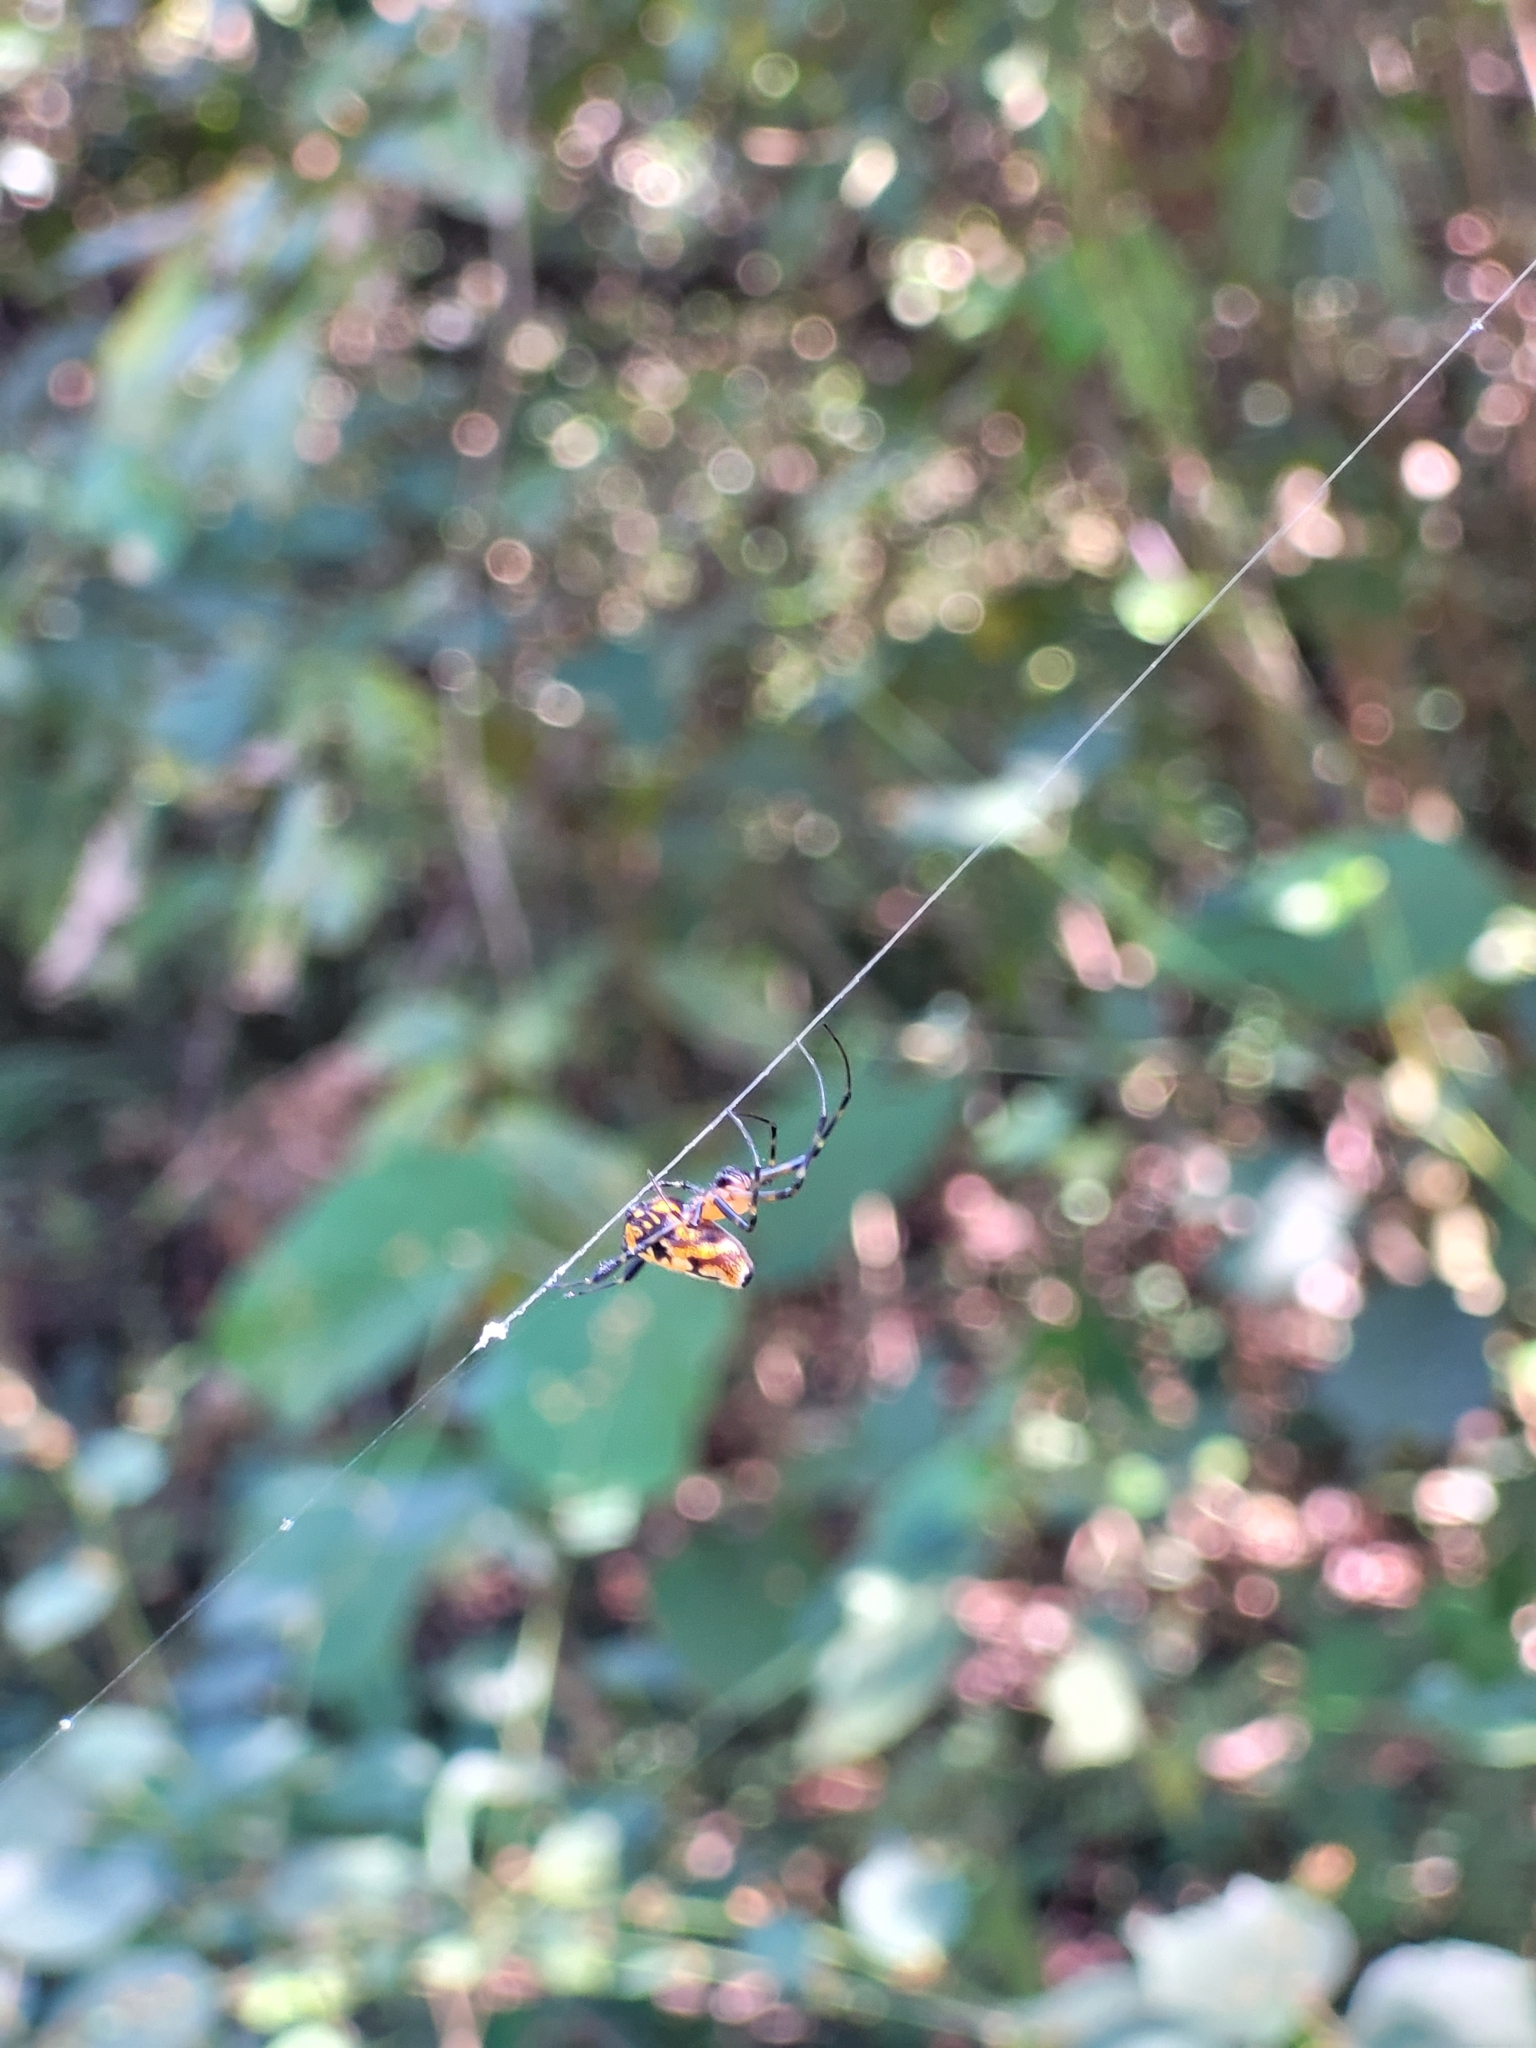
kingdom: Animalia
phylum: Arthropoda
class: Arachnida
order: Araneae
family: Tetragnathidae
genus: Leucauge
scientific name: Leucauge fastigata
